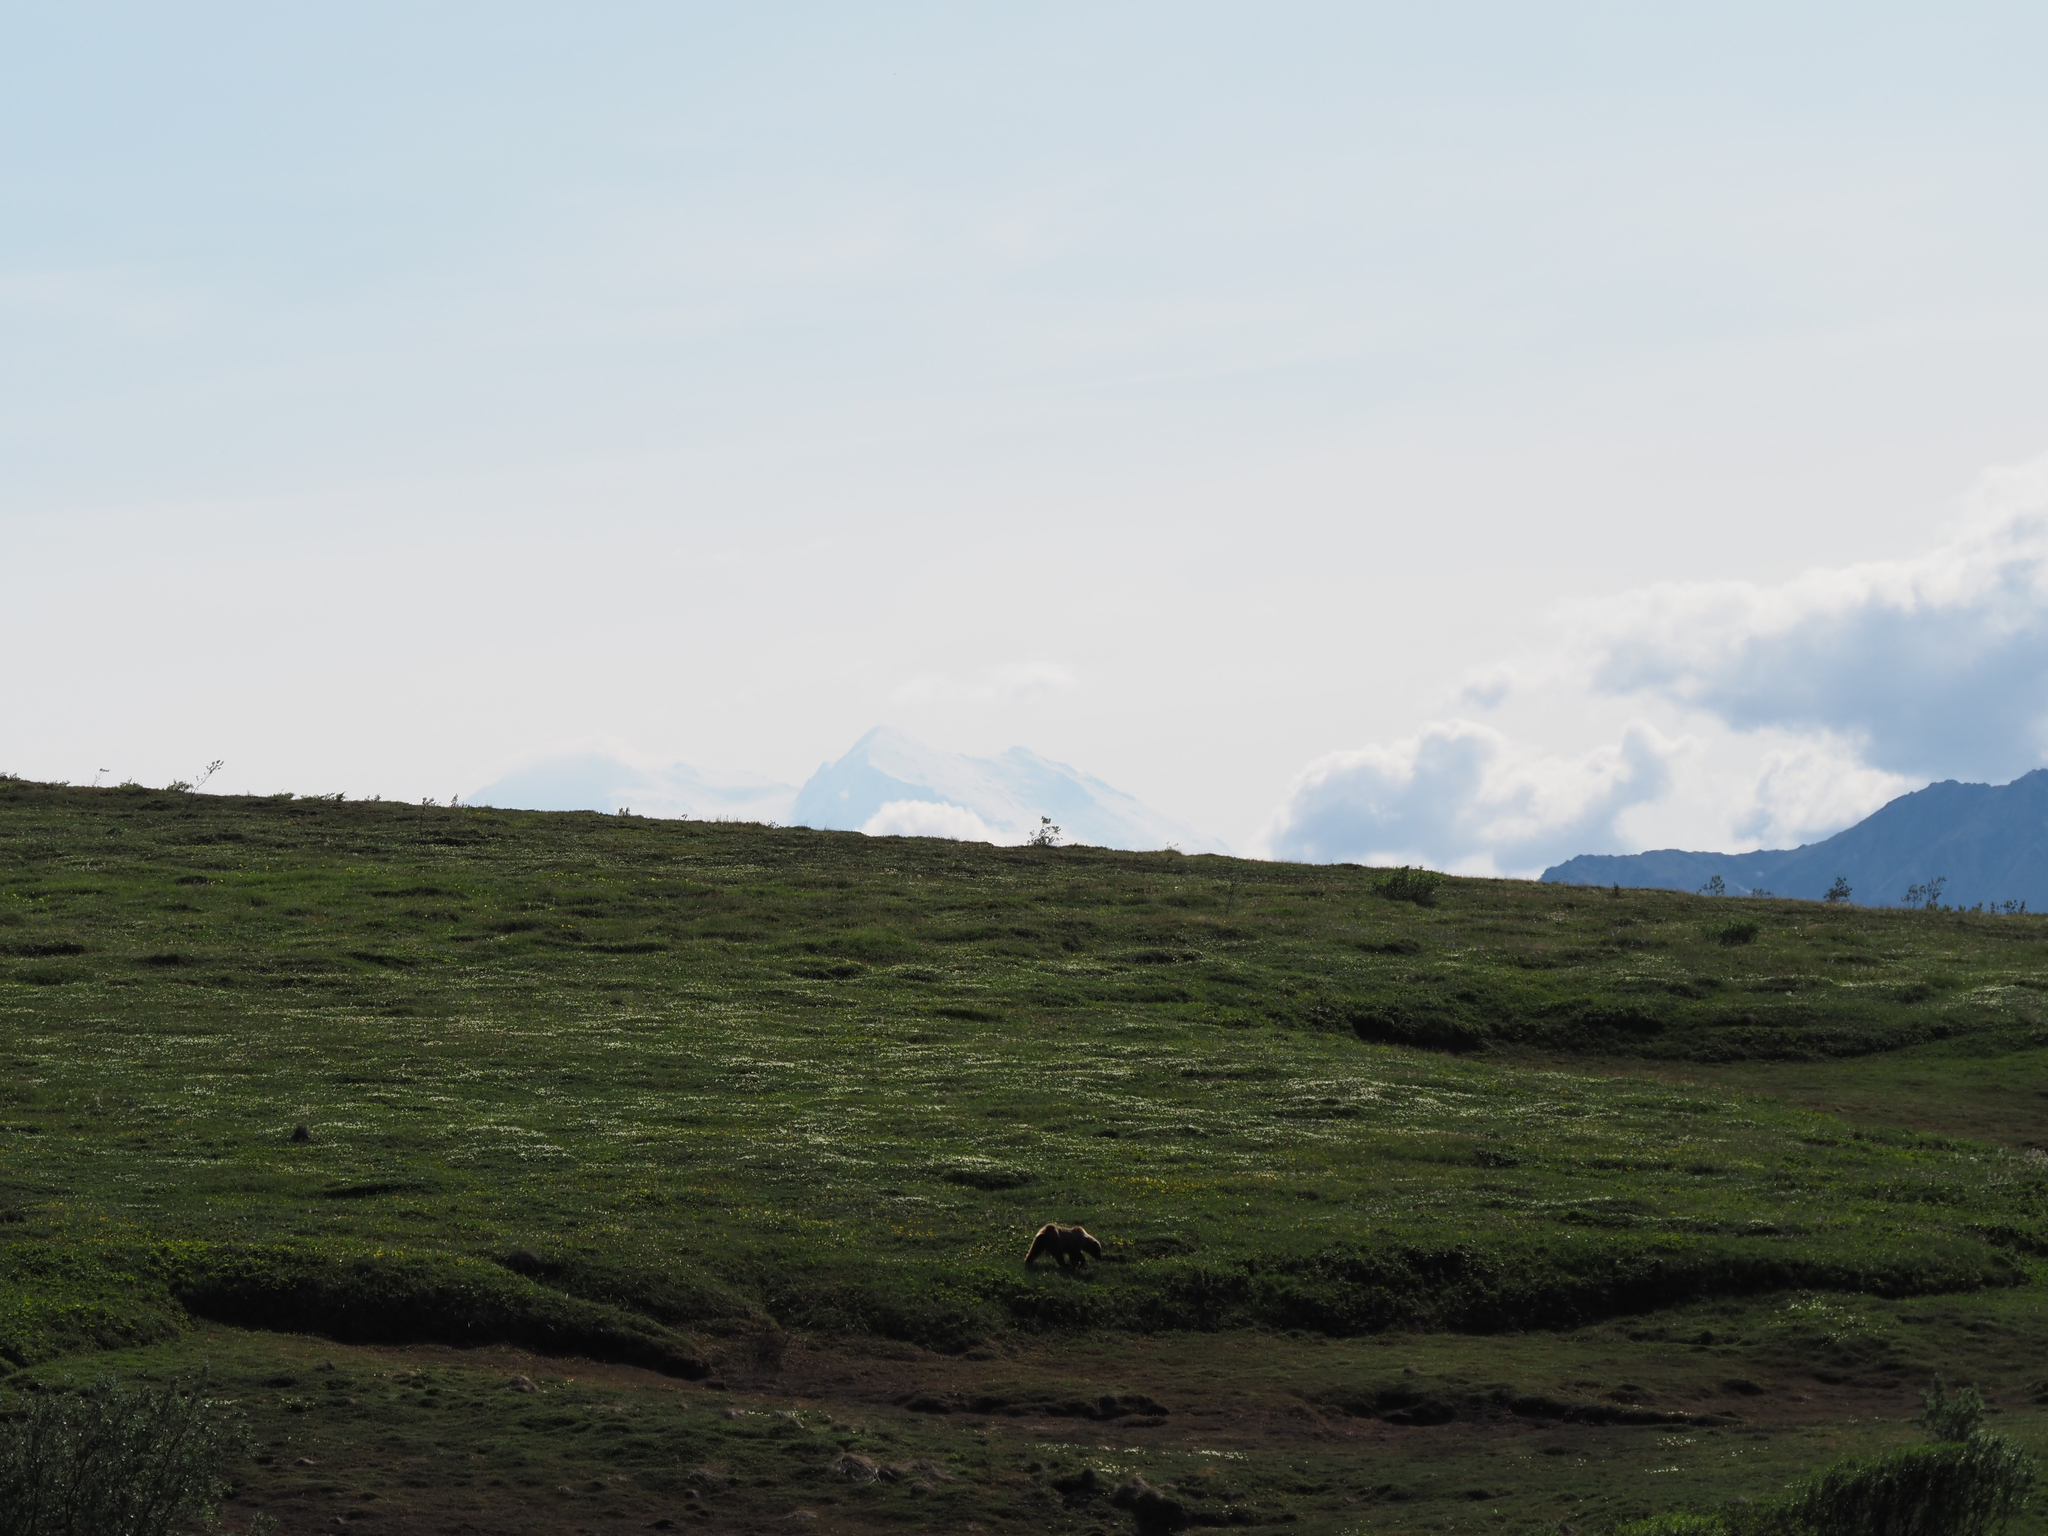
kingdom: Animalia
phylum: Chordata
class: Mammalia
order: Carnivora
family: Ursidae
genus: Ursus
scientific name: Ursus arctos
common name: Brown bear
